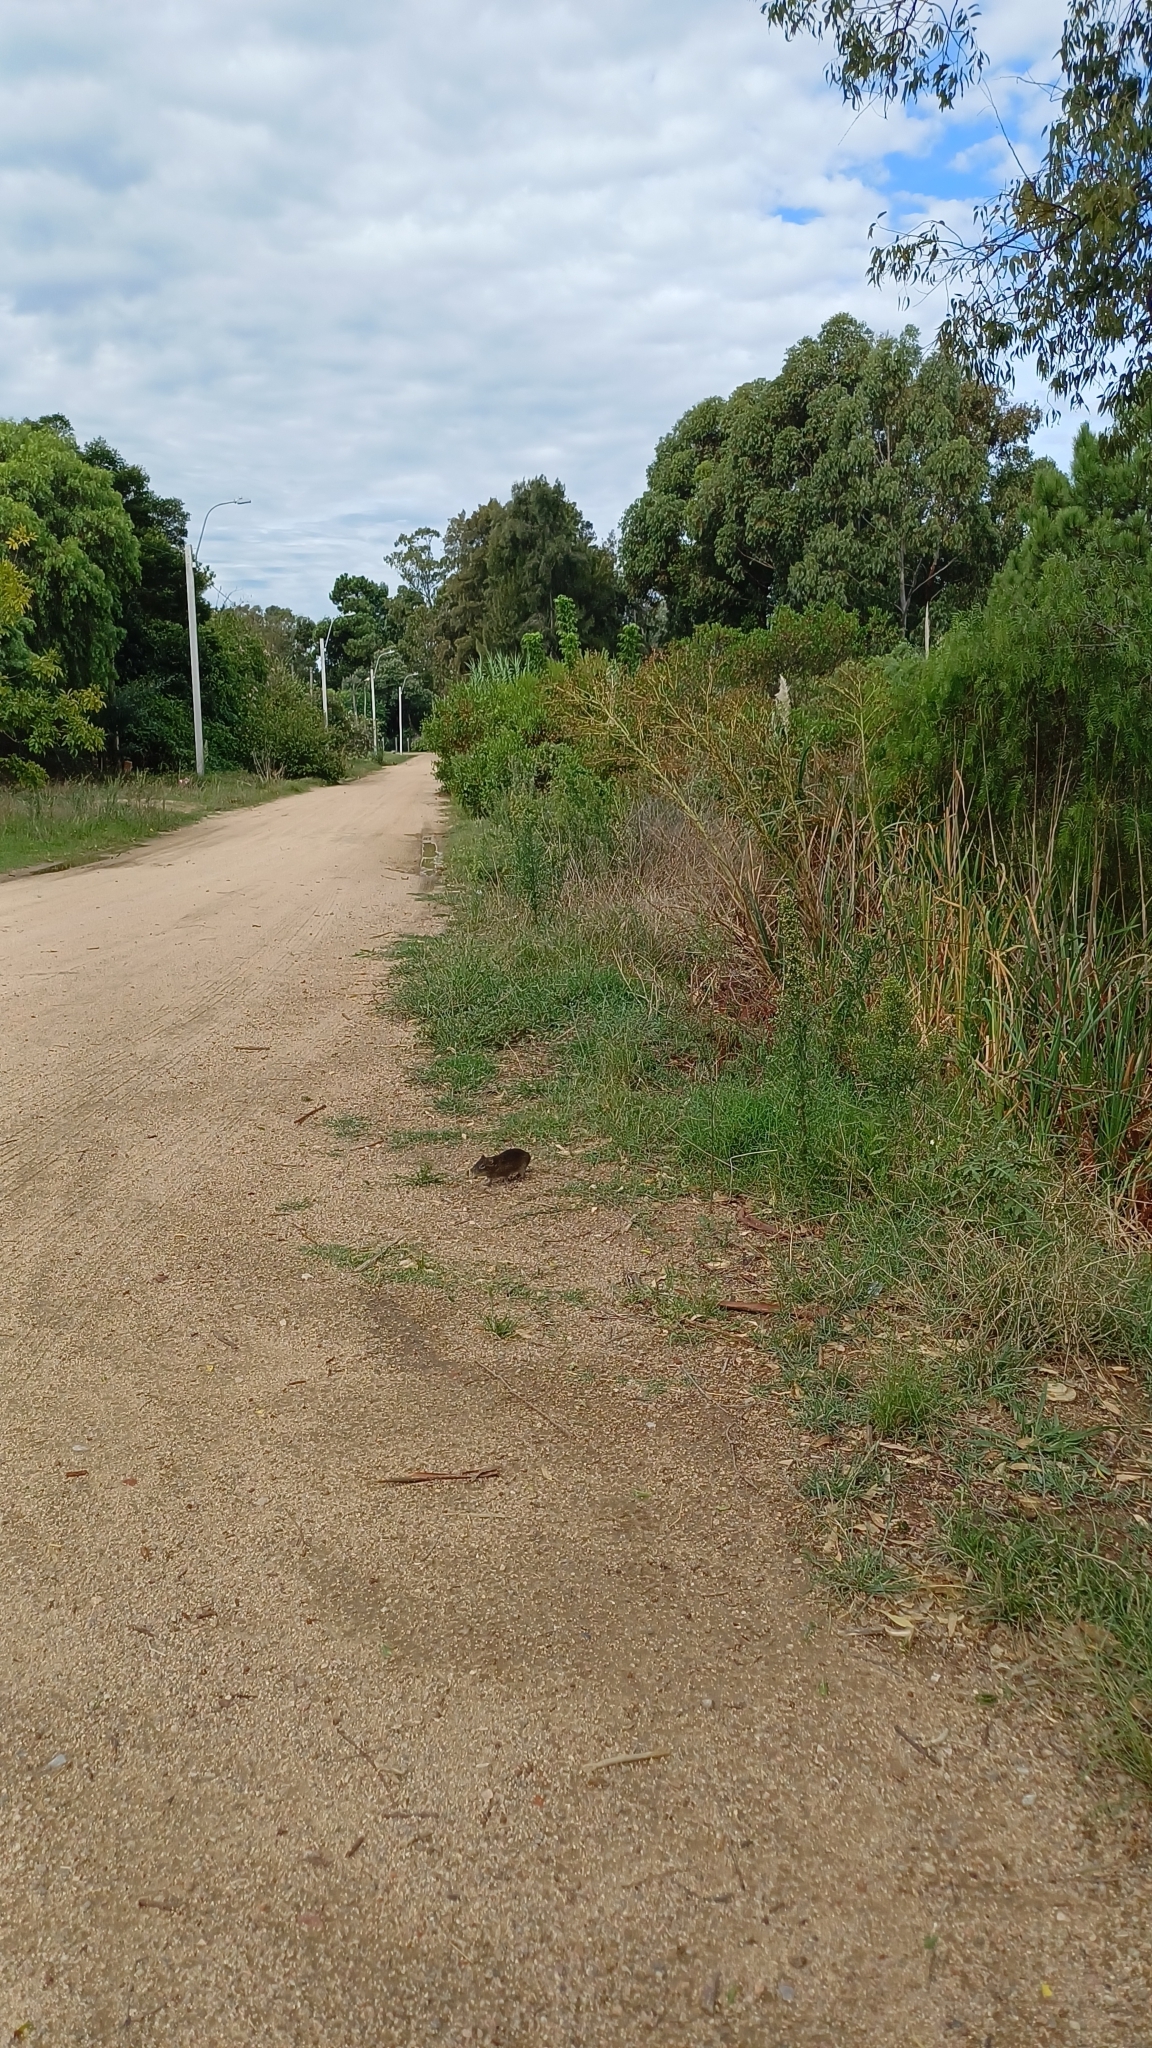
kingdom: Animalia
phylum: Chordata
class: Mammalia
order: Rodentia
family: Caviidae
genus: Cavia
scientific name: Cavia aperea
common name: Brazilian guinea pig
